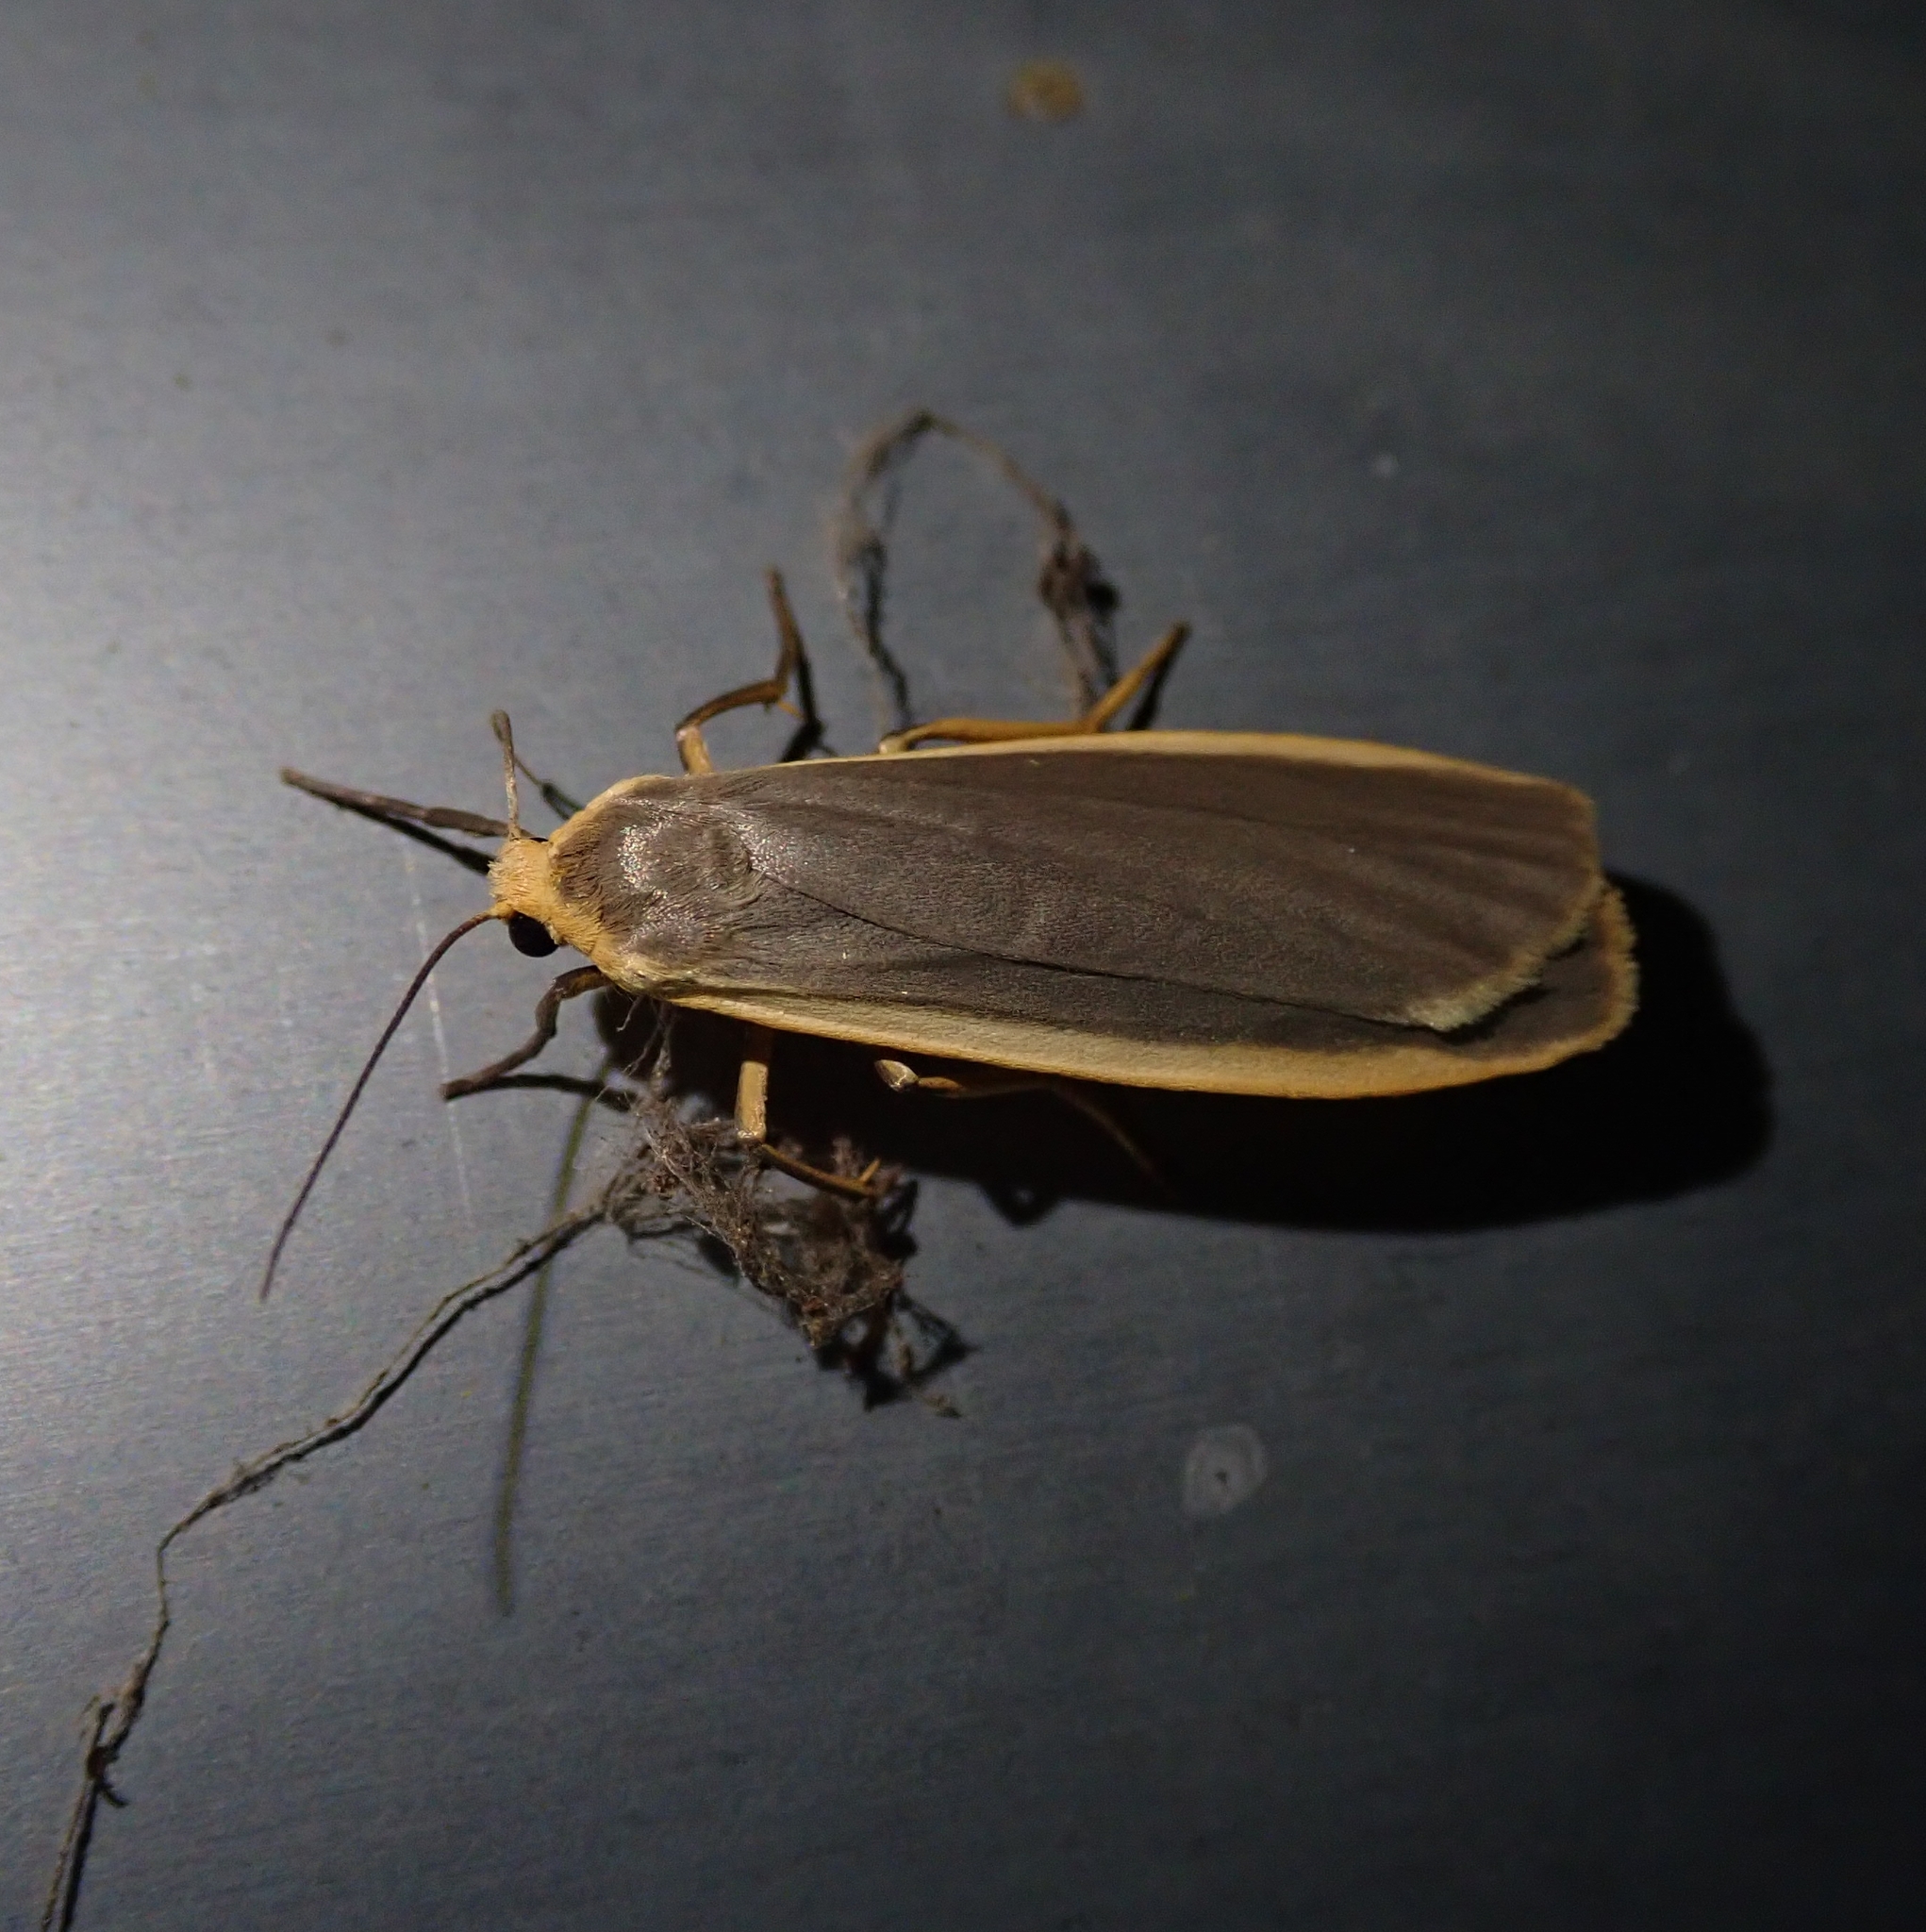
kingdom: Animalia
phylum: Arthropoda
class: Insecta
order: Lepidoptera
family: Erebidae
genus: Nyea
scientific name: Nyea lurideola
